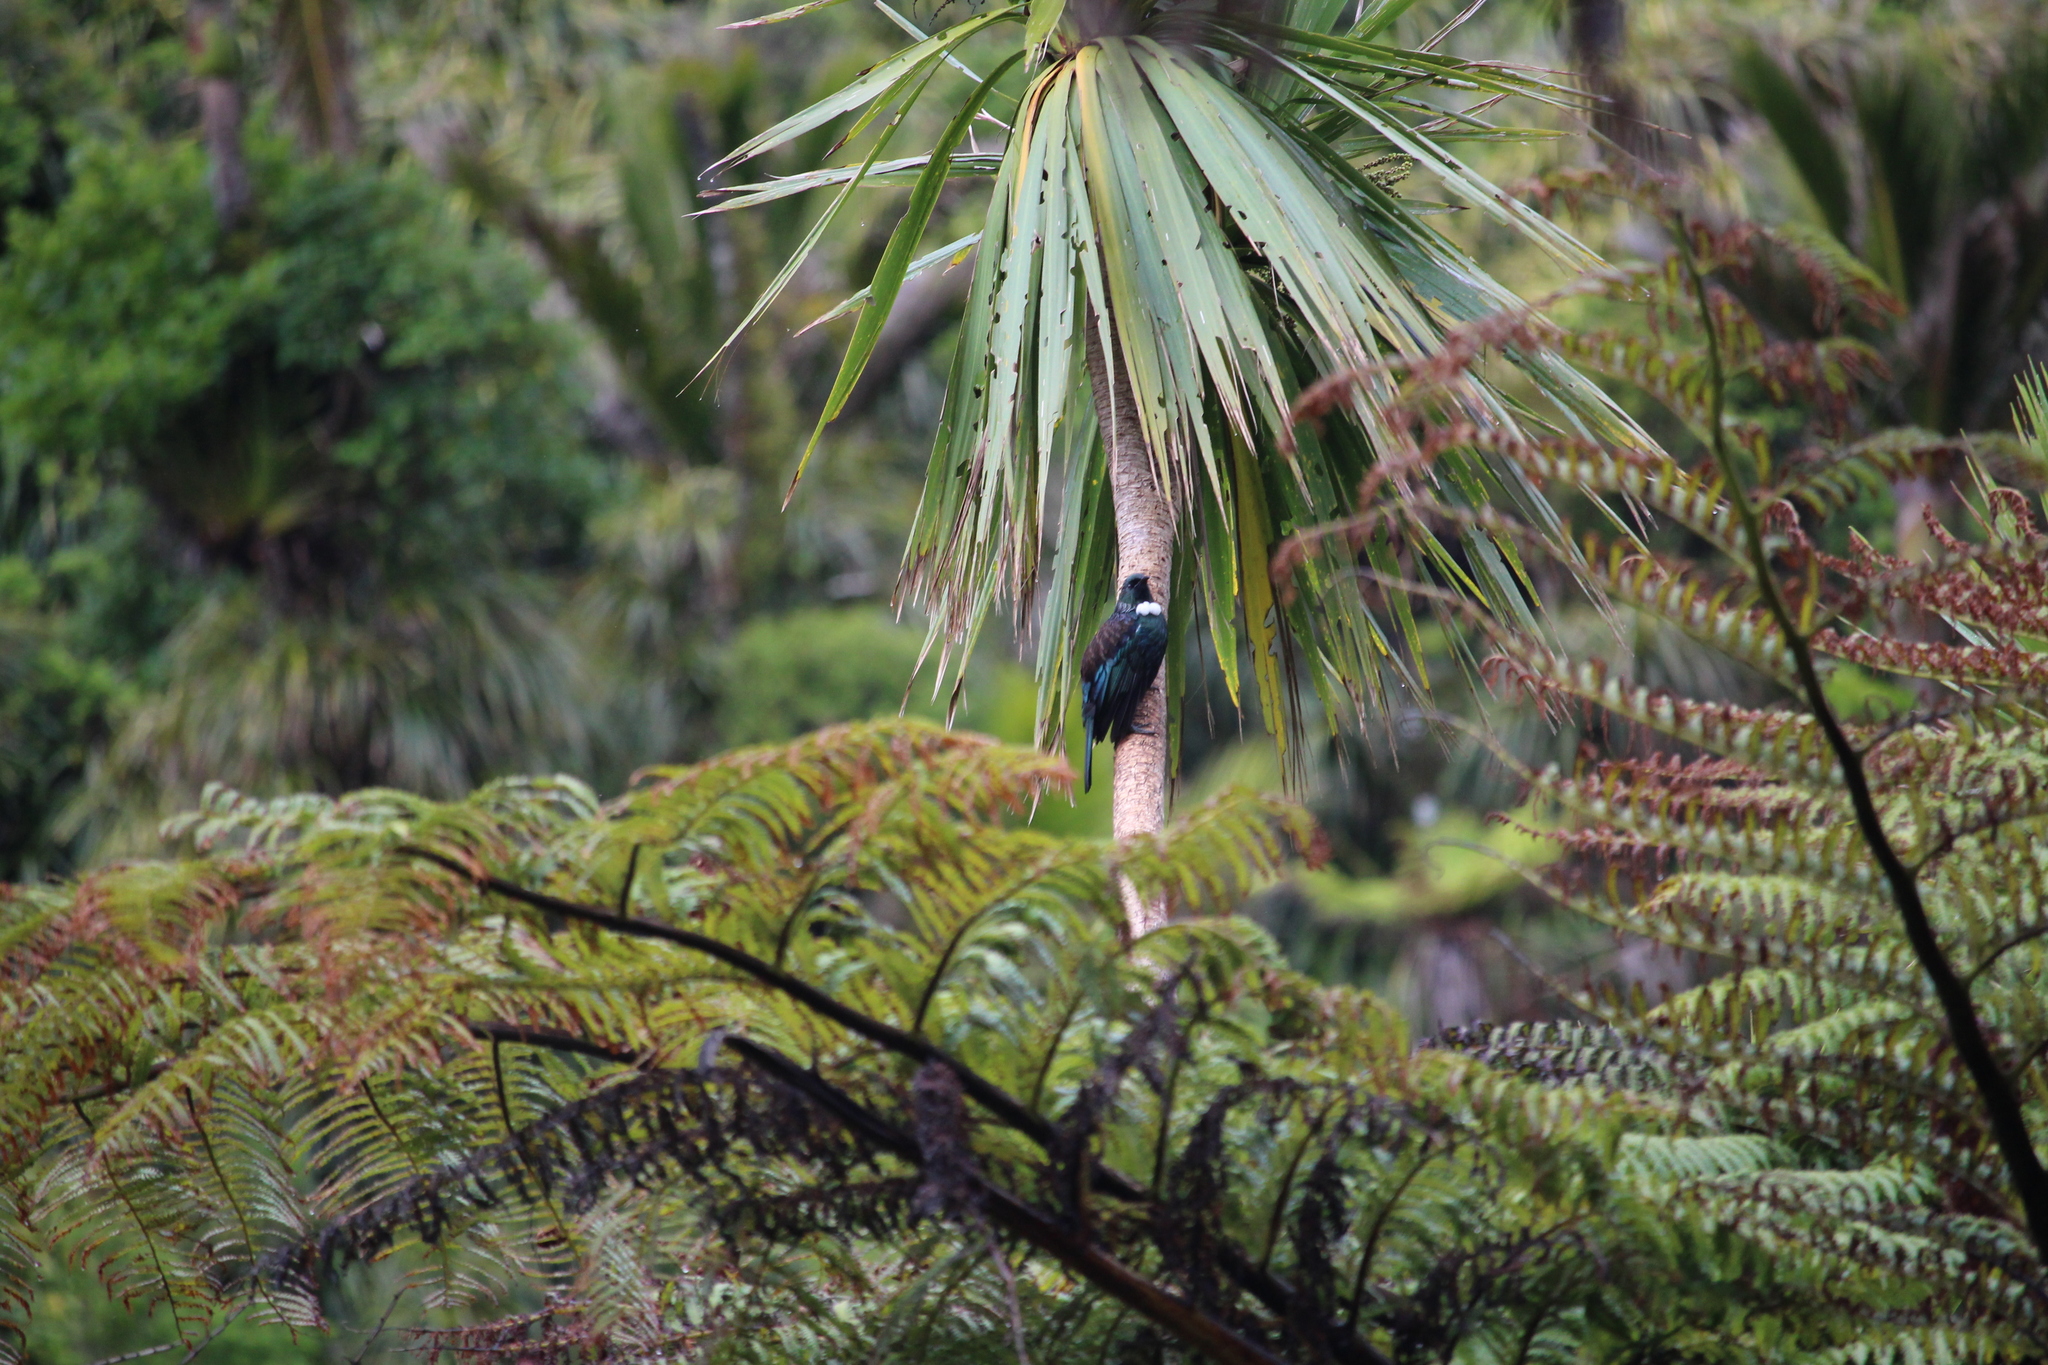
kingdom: Animalia
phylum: Chordata
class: Aves
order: Passeriformes
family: Meliphagidae
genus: Prosthemadera
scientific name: Prosthemadera novaeseelandiae
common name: Tui
